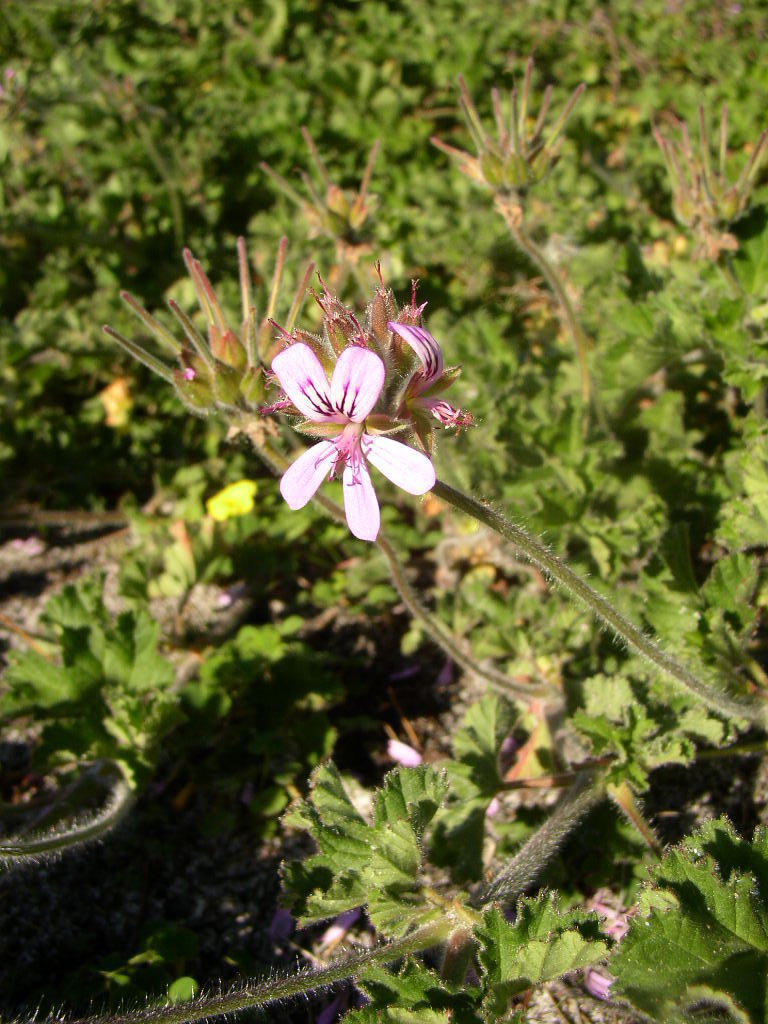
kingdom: Plantae
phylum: Tracheophyta
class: Magnoliopsida
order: Geraniales
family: Geraniaceae
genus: Pelargonium
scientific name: Pelargonium capitatum
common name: Rose scented geranium
